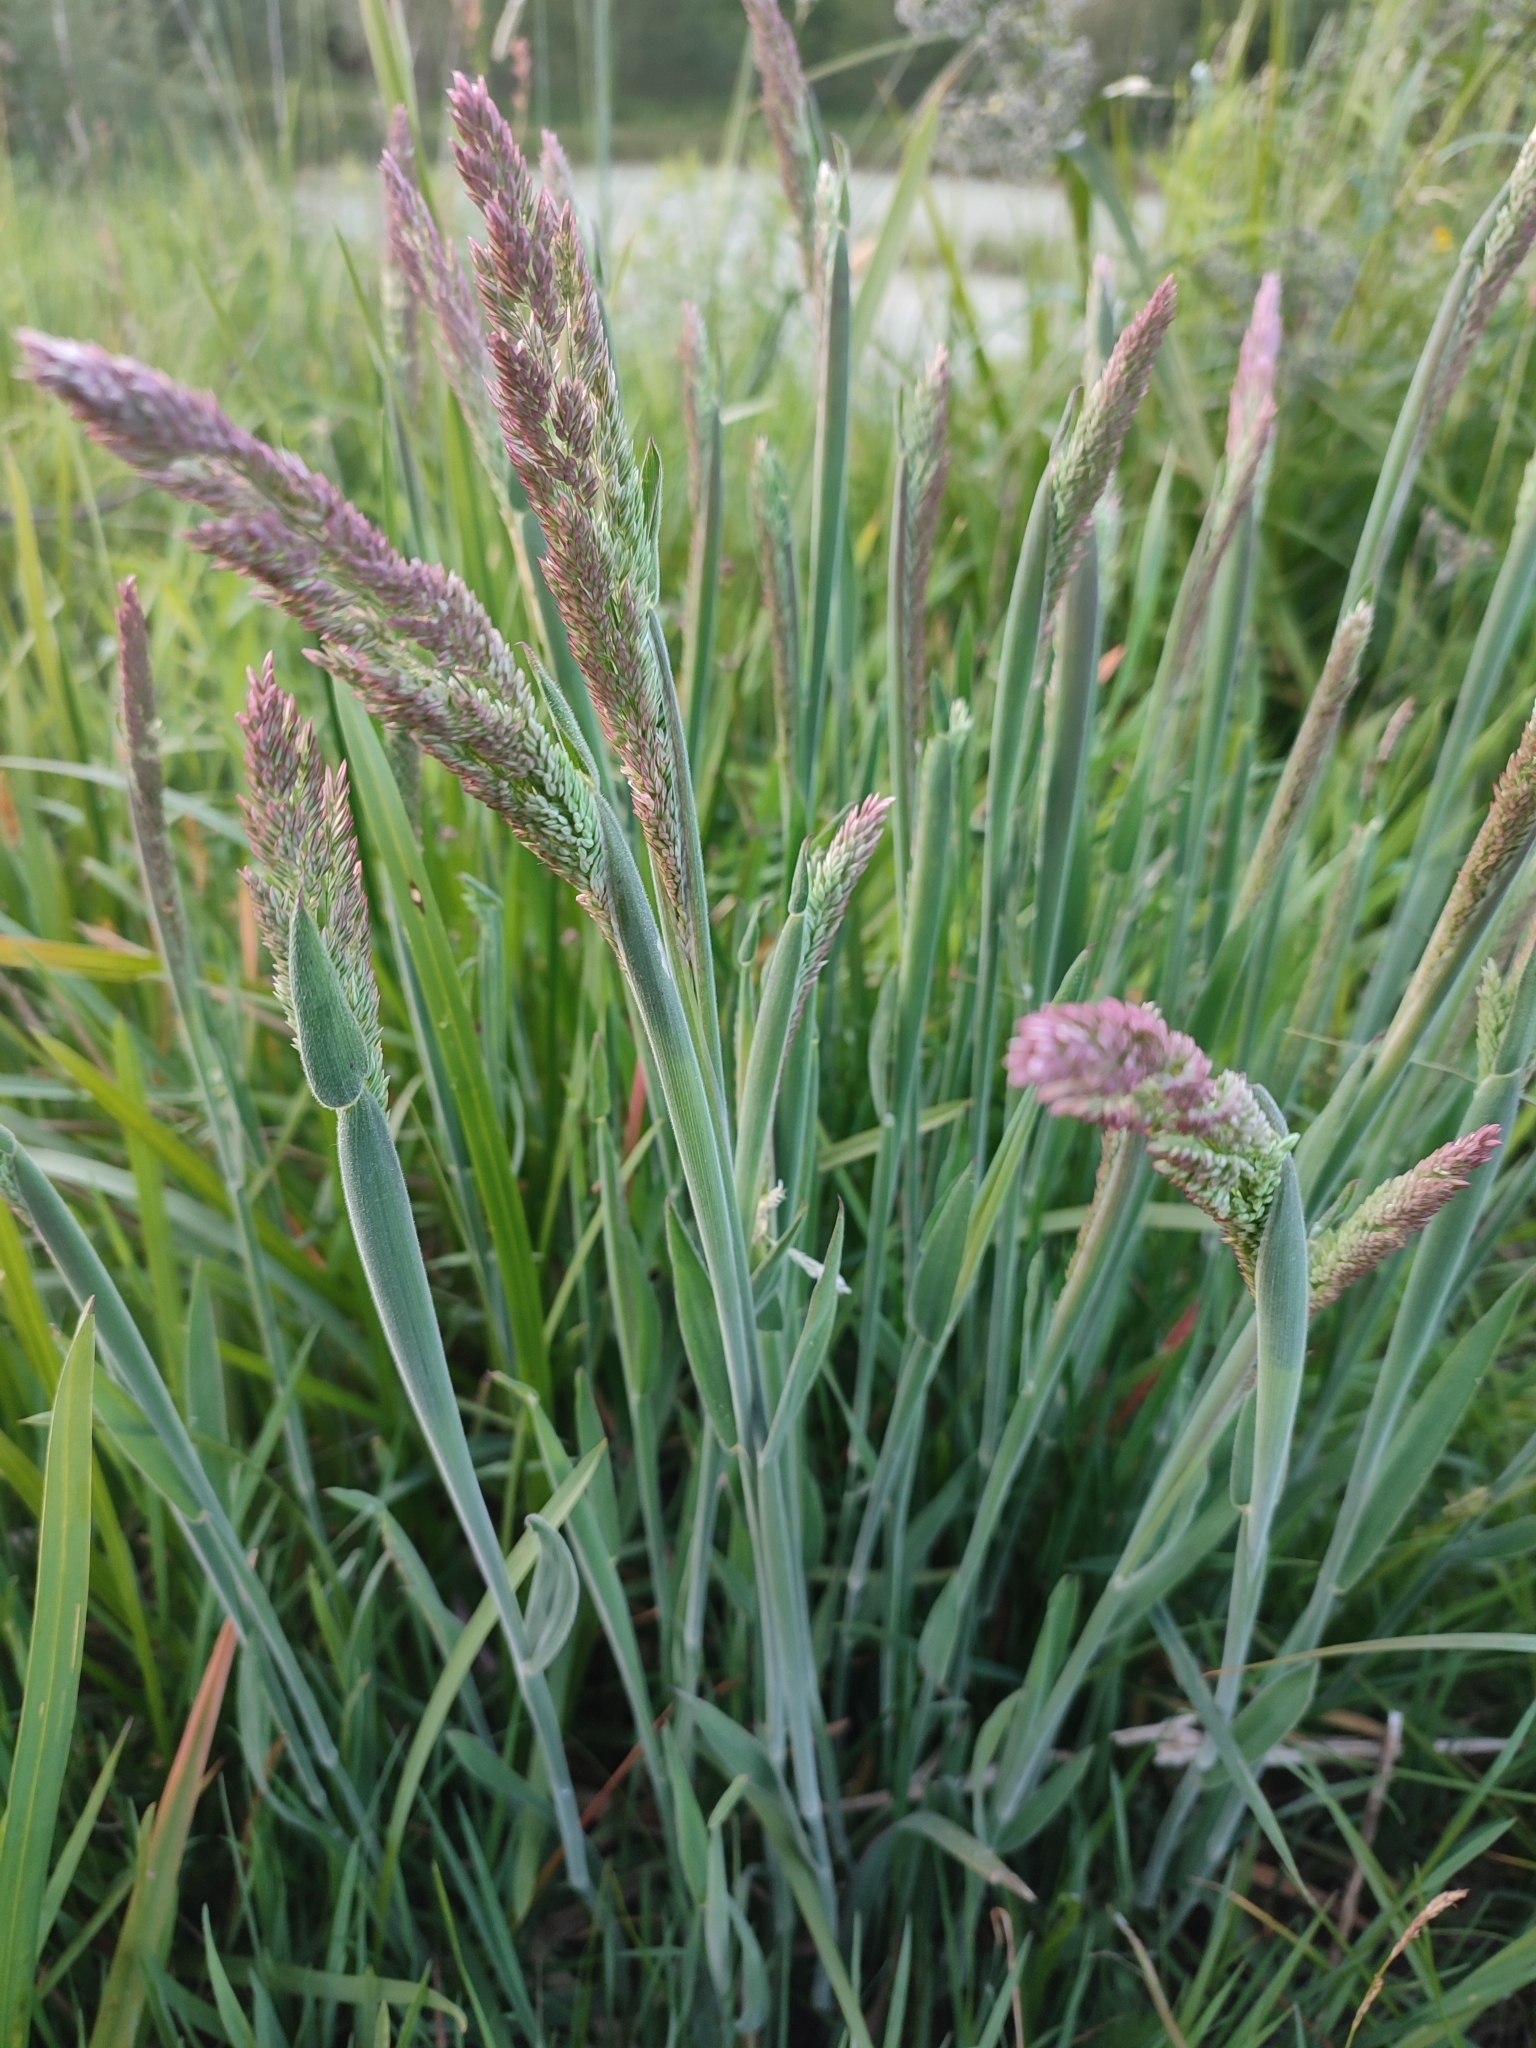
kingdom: Plantae
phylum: Tracheophyta
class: Liliopsida
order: Poales
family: Poaceae
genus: Holcus
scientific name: Holcus lanatus
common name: Yorkshire-fog
